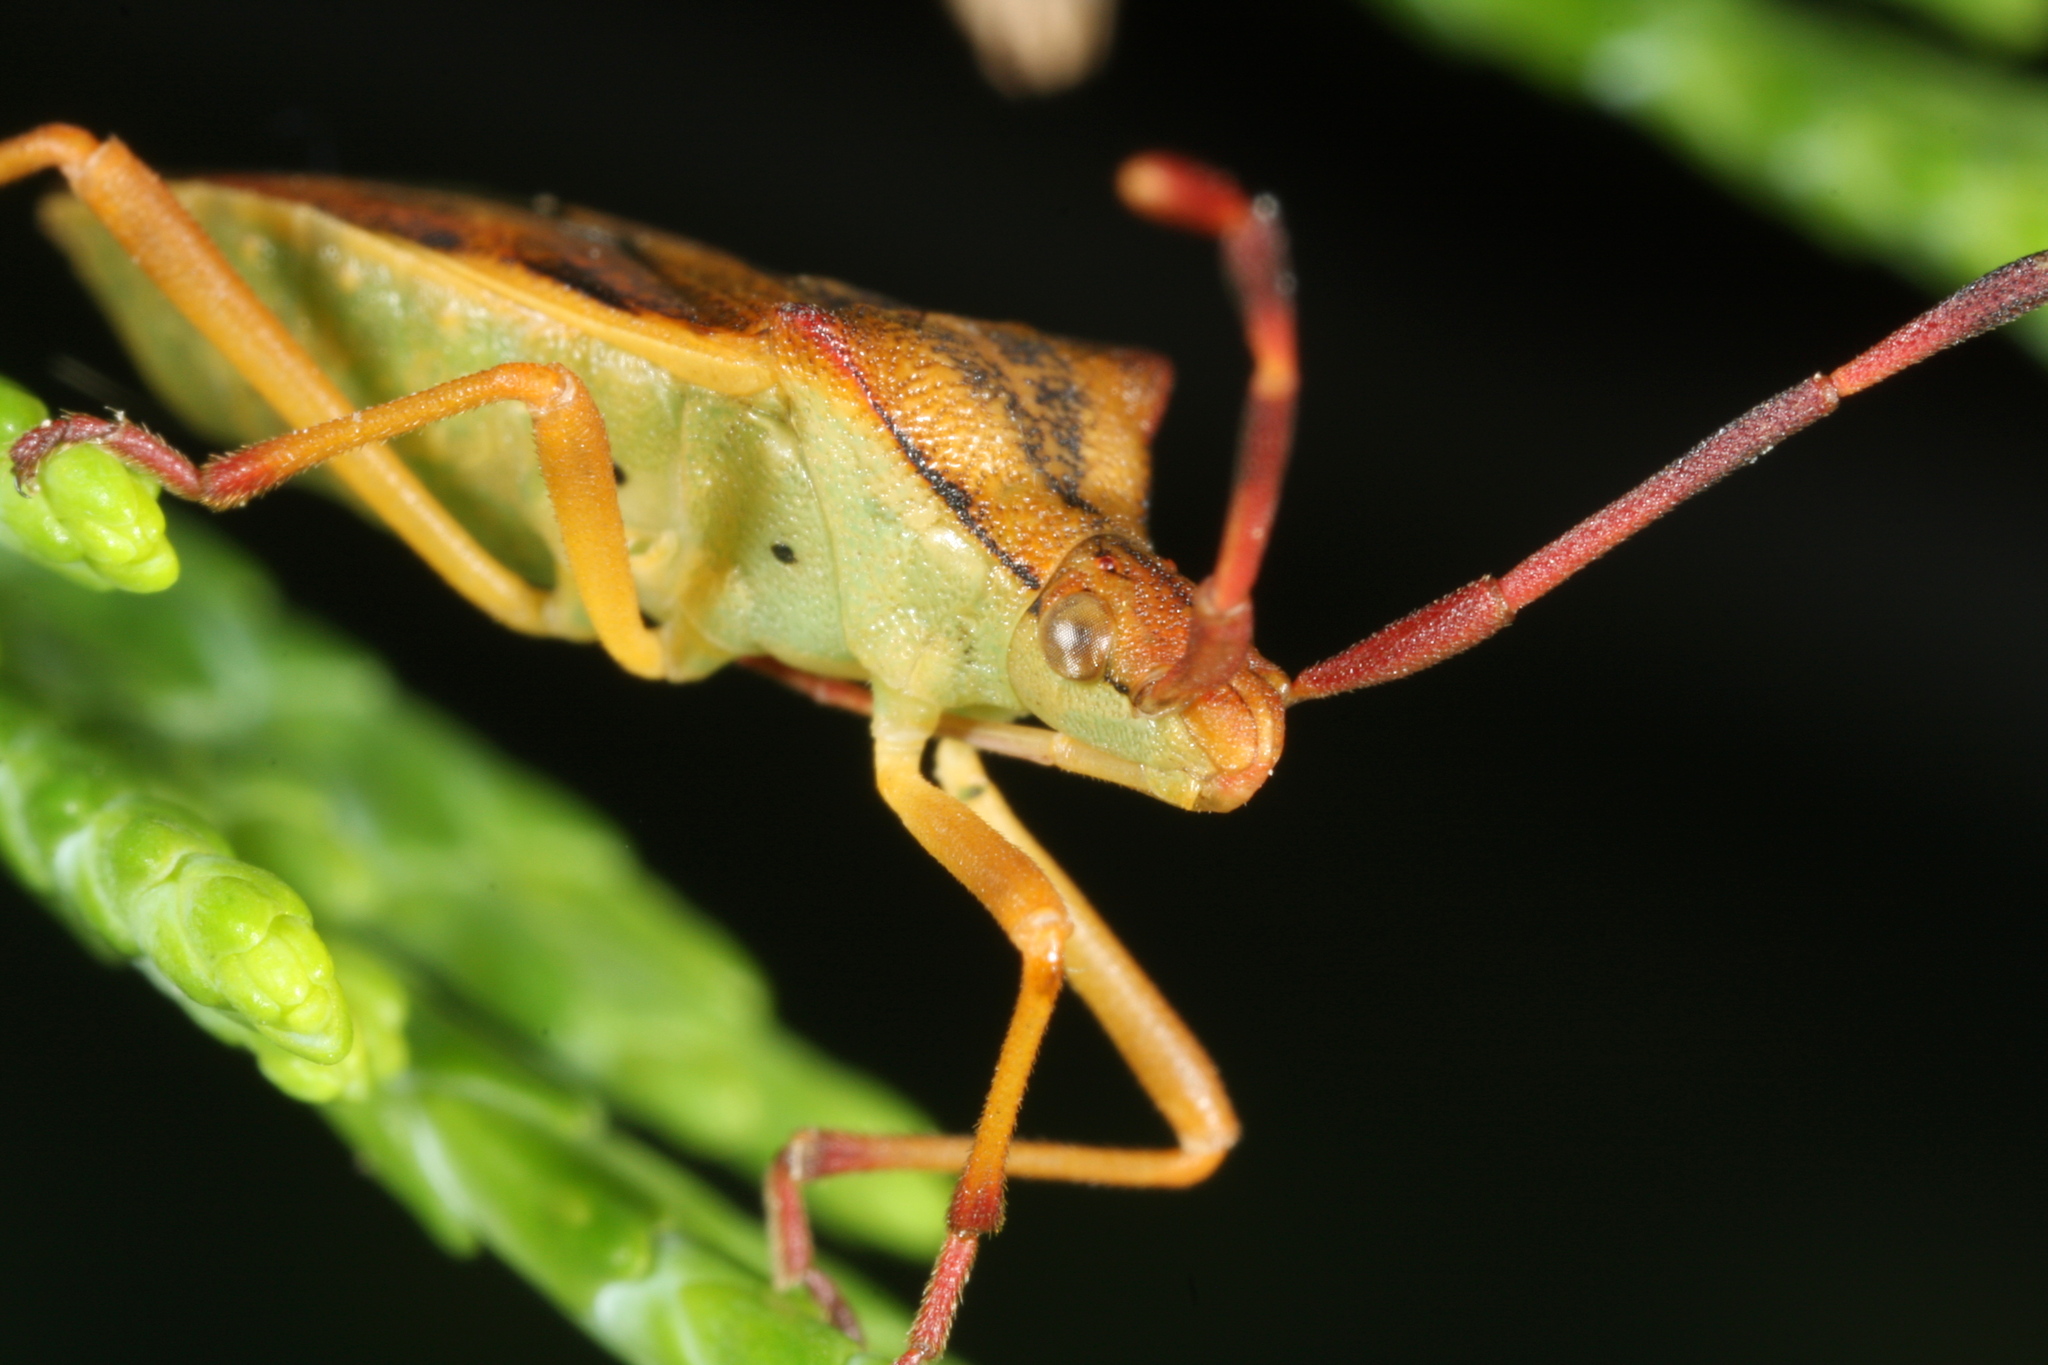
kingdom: Animalia
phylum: Arthropoda
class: Insecta
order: Hemiptera
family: Coreidae
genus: Gonocerus
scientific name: Gonocerus juniperi
